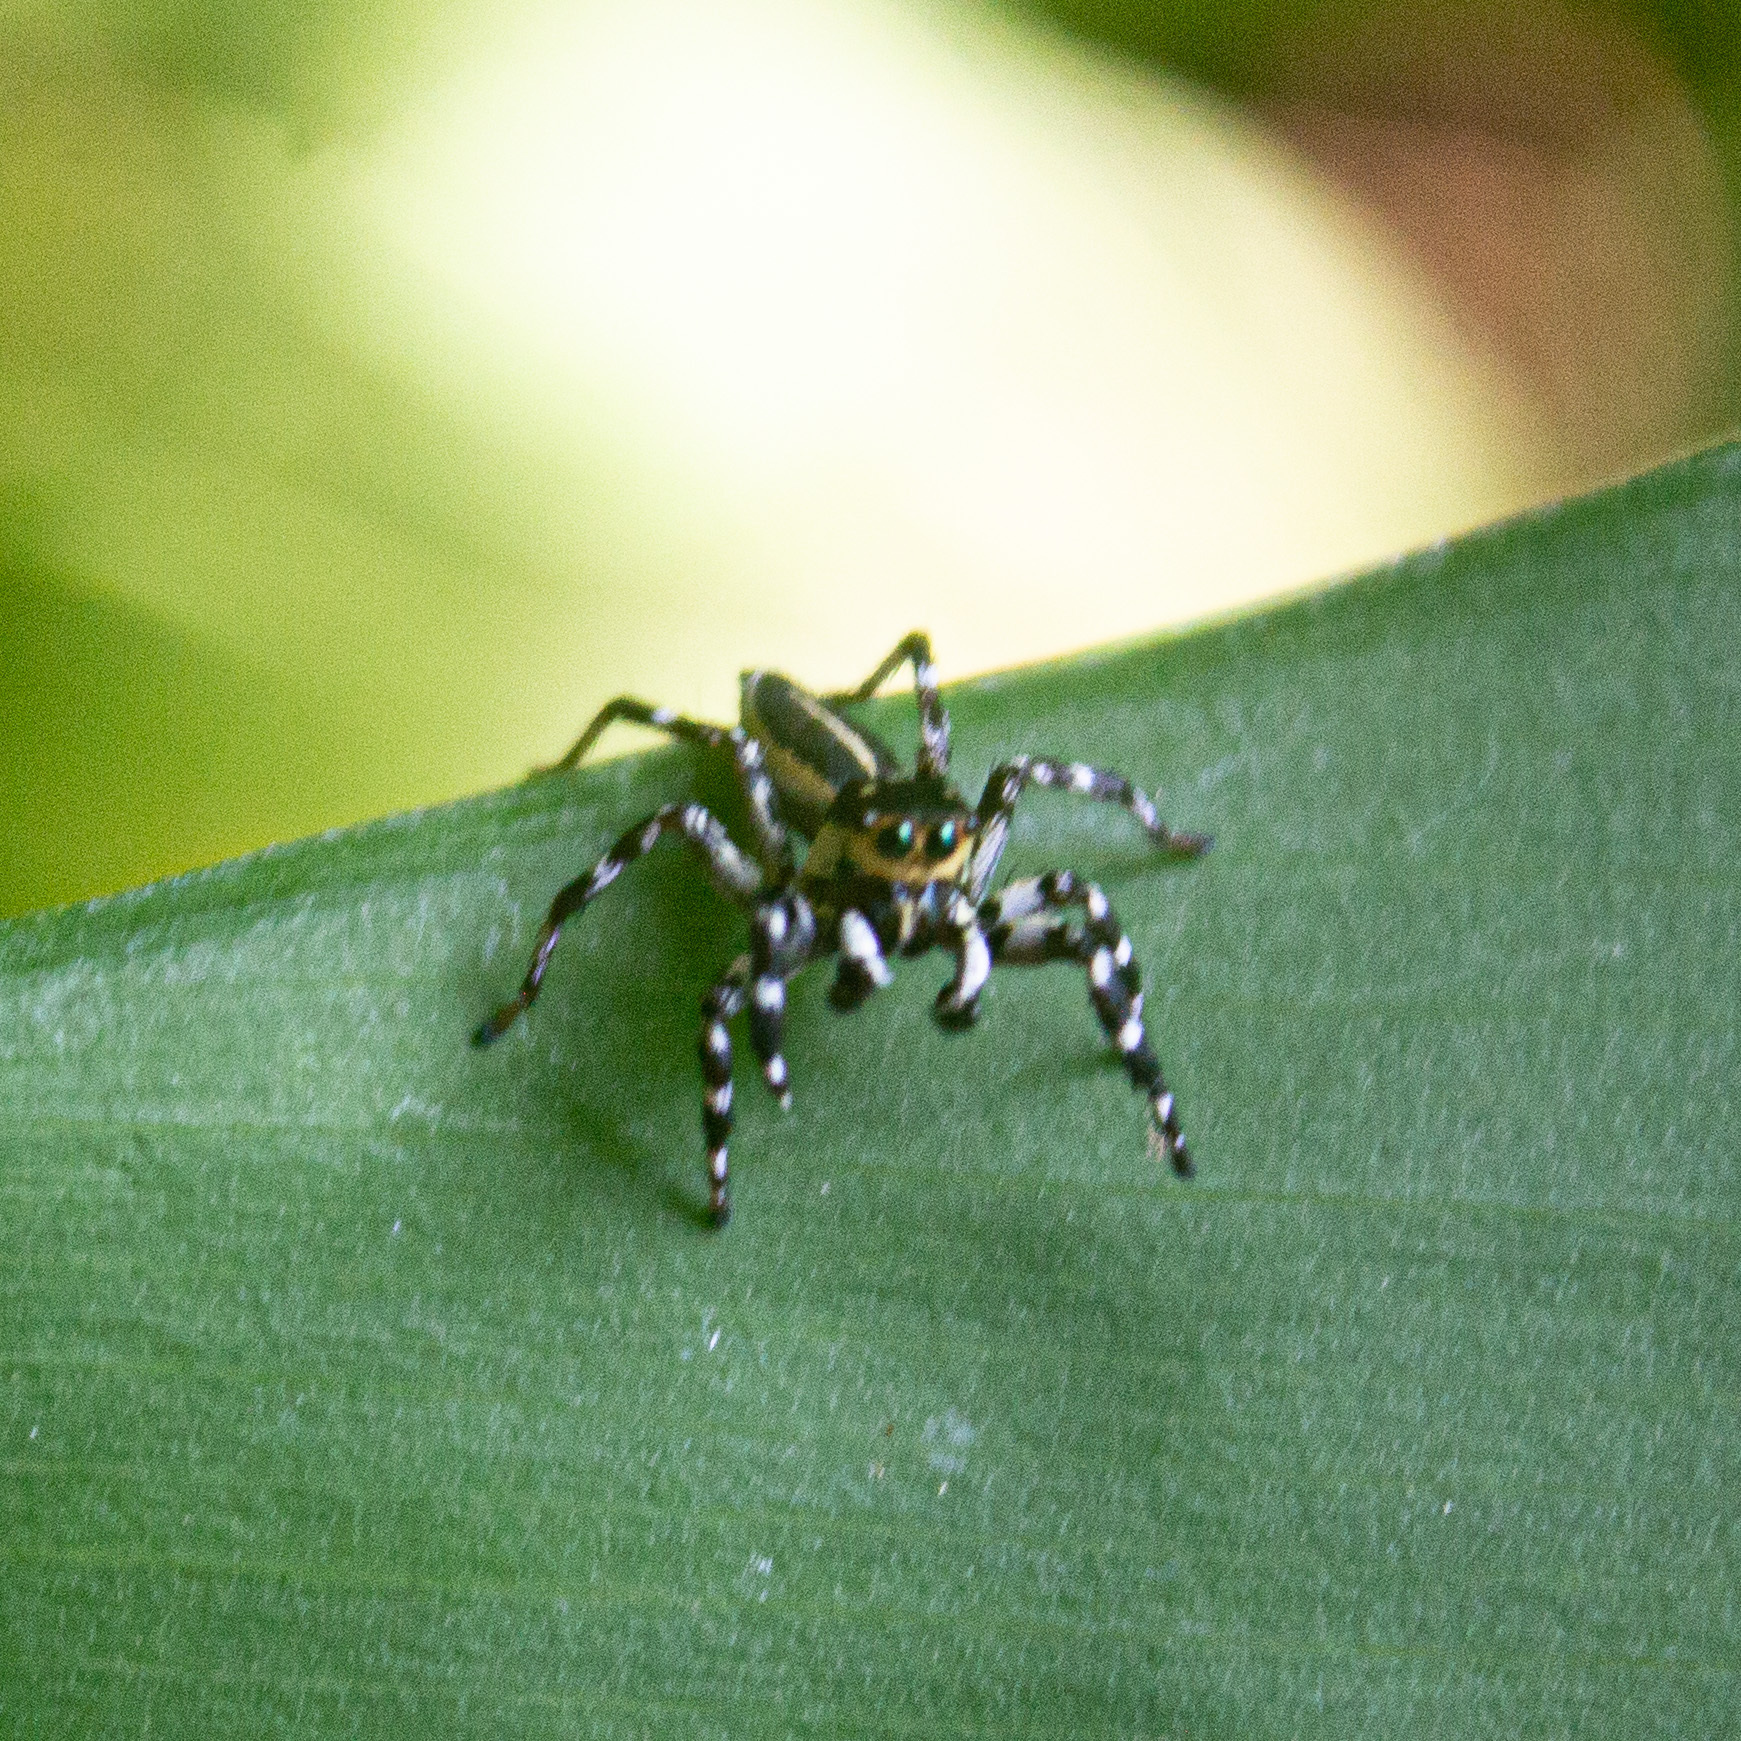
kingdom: Animalia
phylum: Arthropoda
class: Arachnida
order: Araneae
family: Salticidae
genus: Phiale
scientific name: Phiale tristis
